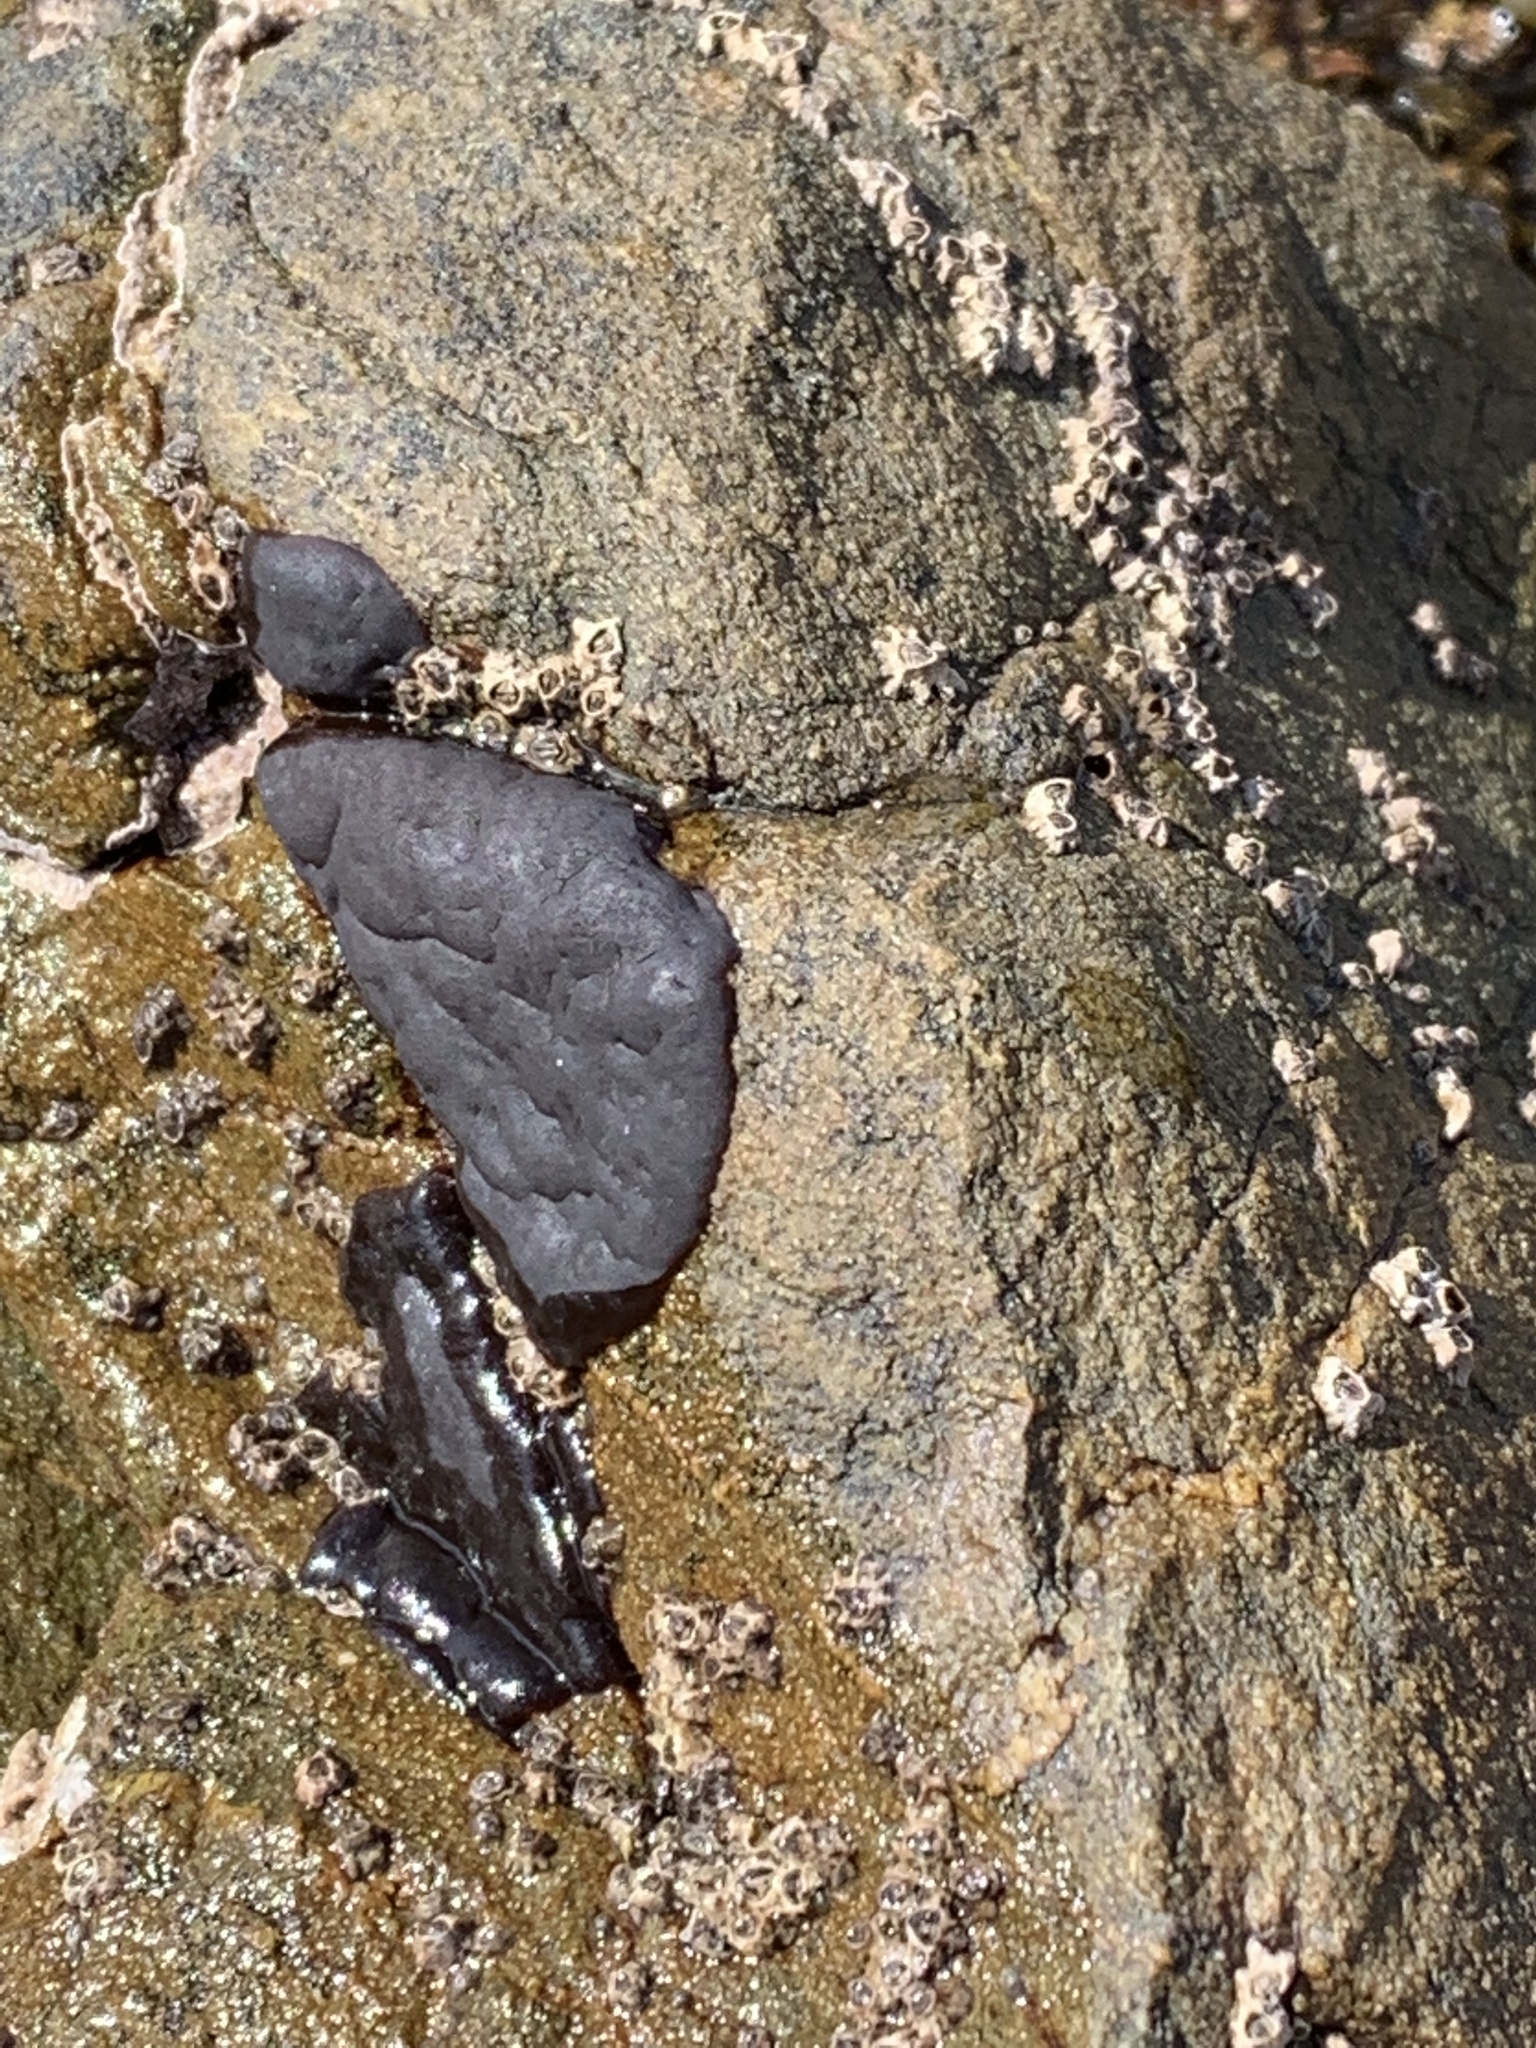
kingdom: Plantae
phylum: Rhodophyta
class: Florideophyceae
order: Hildenbrandiales
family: Hildenbrandiaceae
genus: Apophlaea
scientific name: Apophlaea
